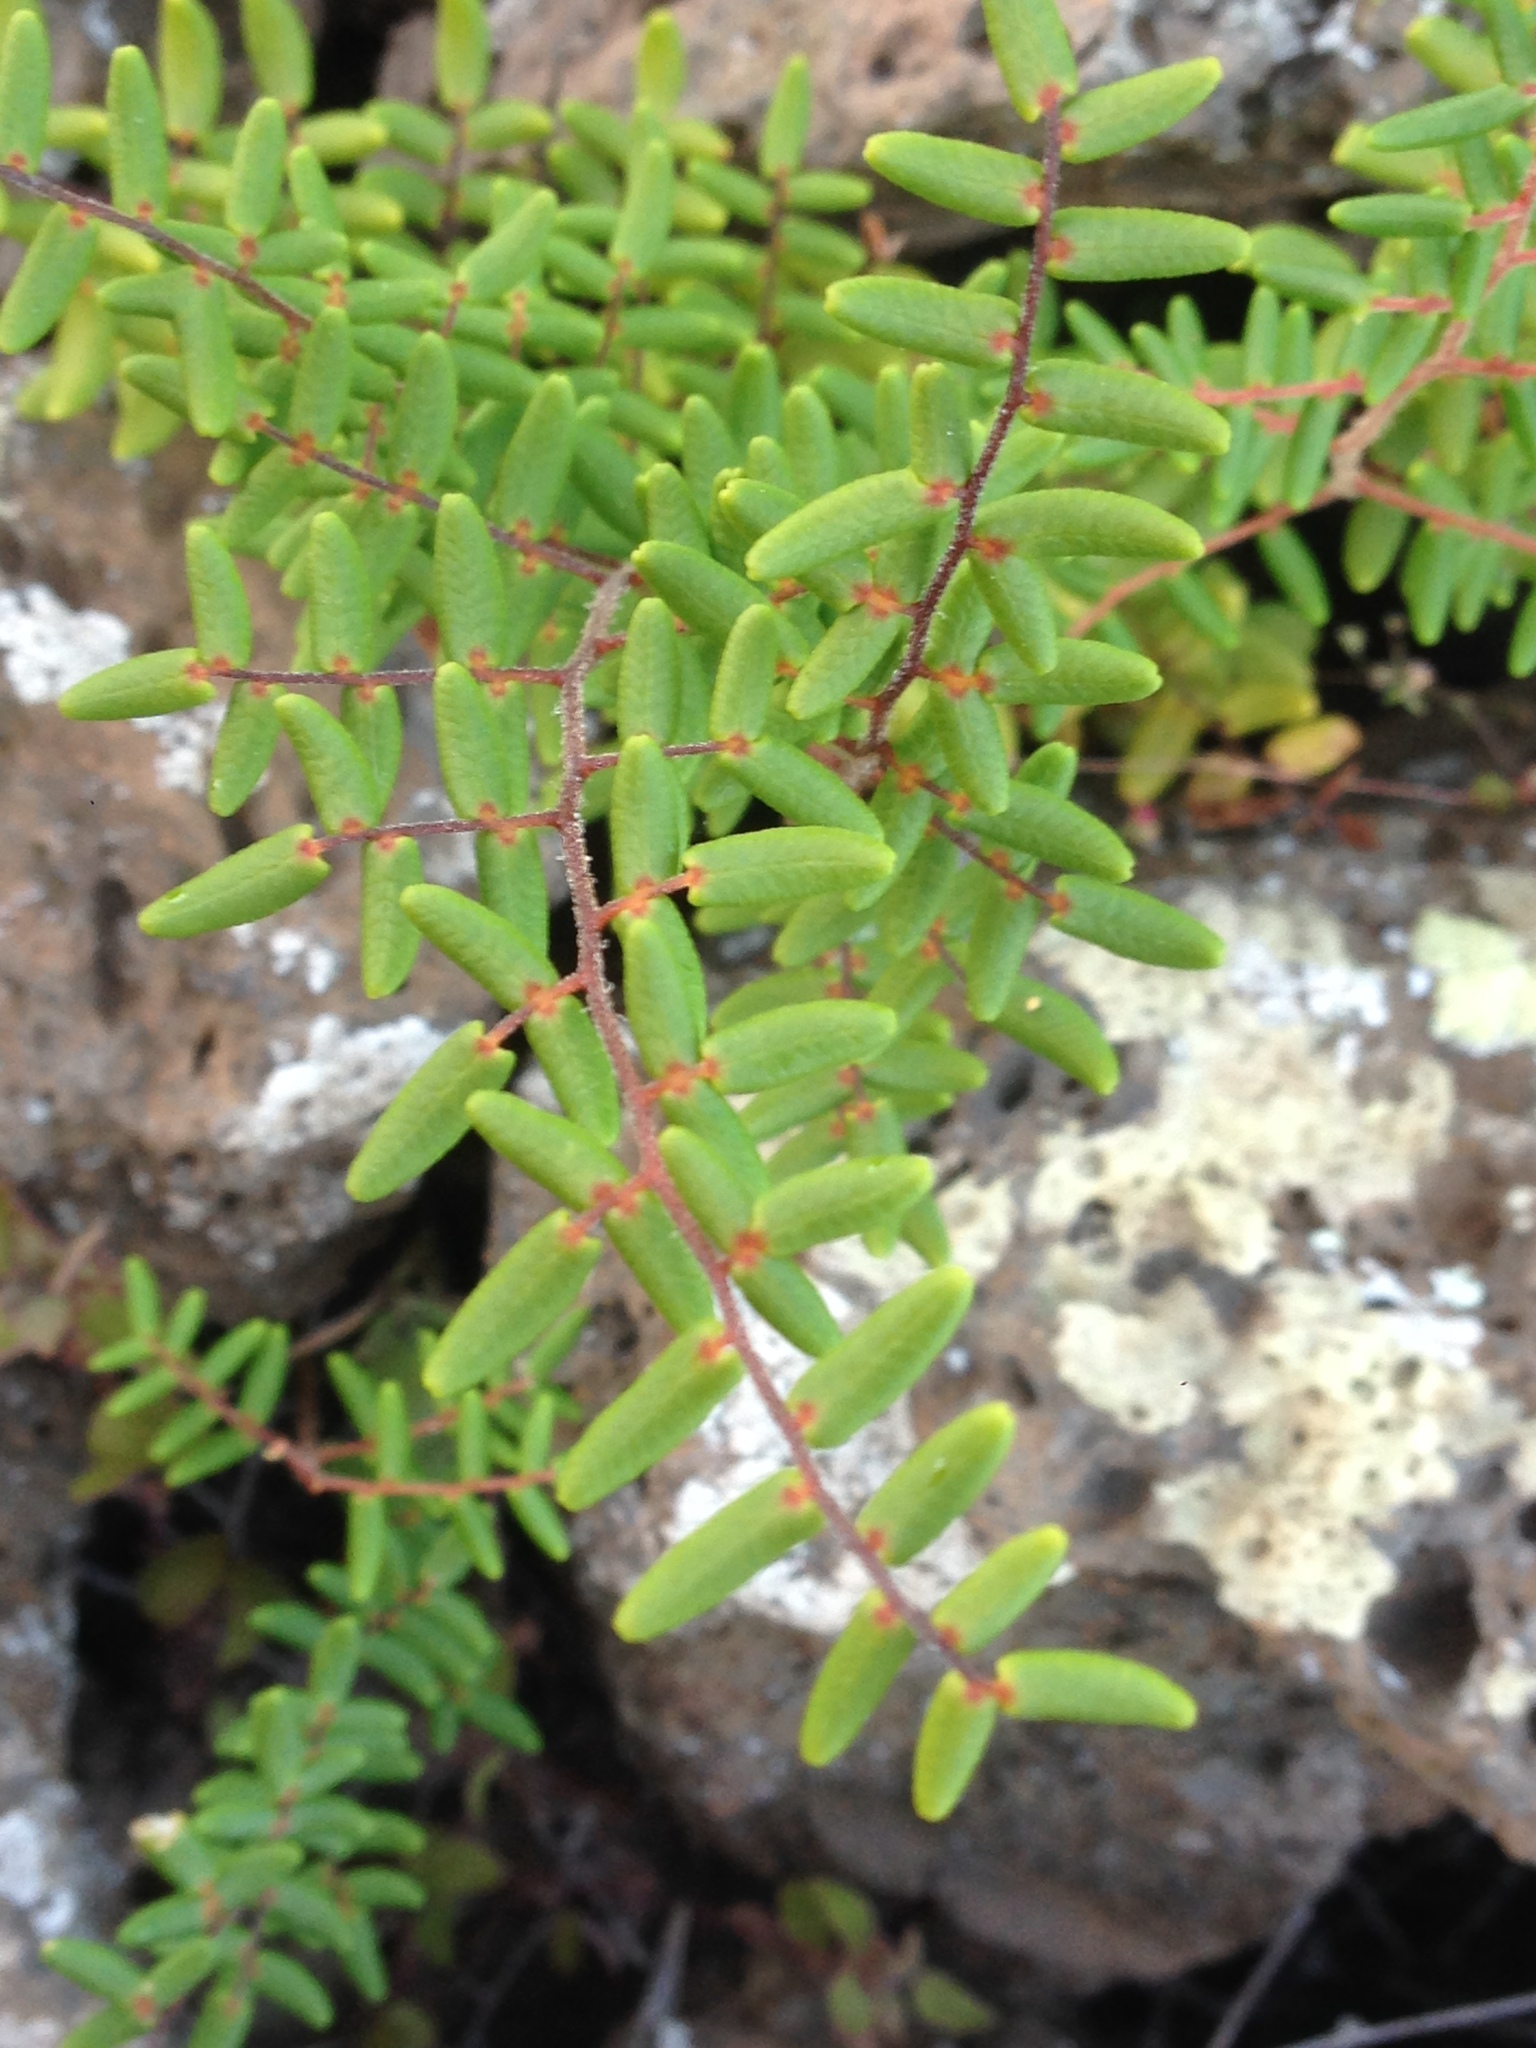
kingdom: Plantae
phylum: Tracheophyta
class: Polypodiopsida
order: Polypodiales
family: Pteridaceae
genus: Pellaea
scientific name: Pellaea andromedifolia
